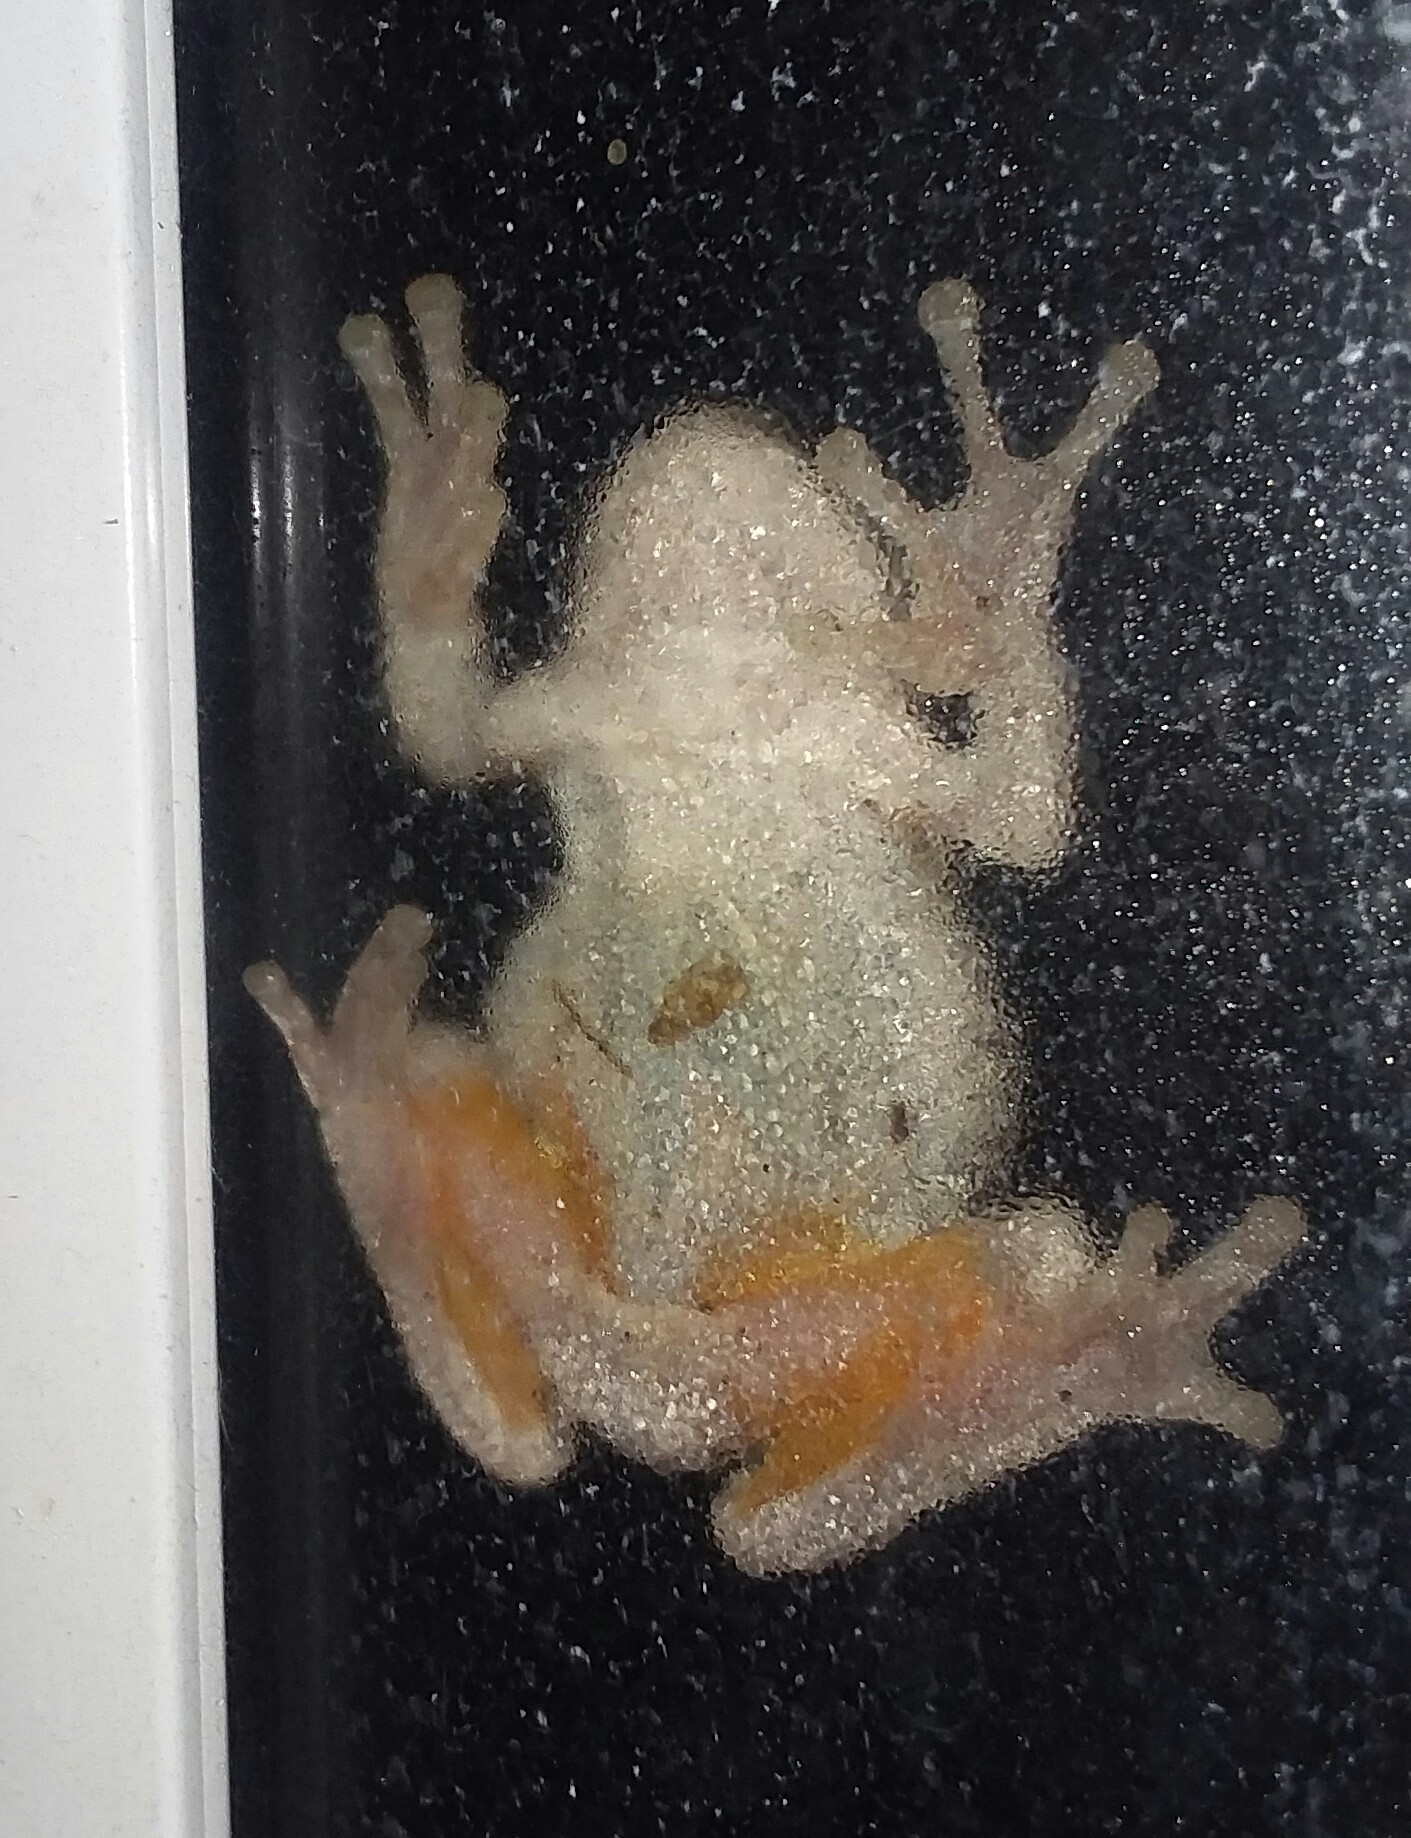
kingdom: Animalia
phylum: Chordata
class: Amphibia
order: Anura
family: Hylidae
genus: Dryophytes
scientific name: Dryophytes chrysoscelis
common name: Cope's gray treefrog
